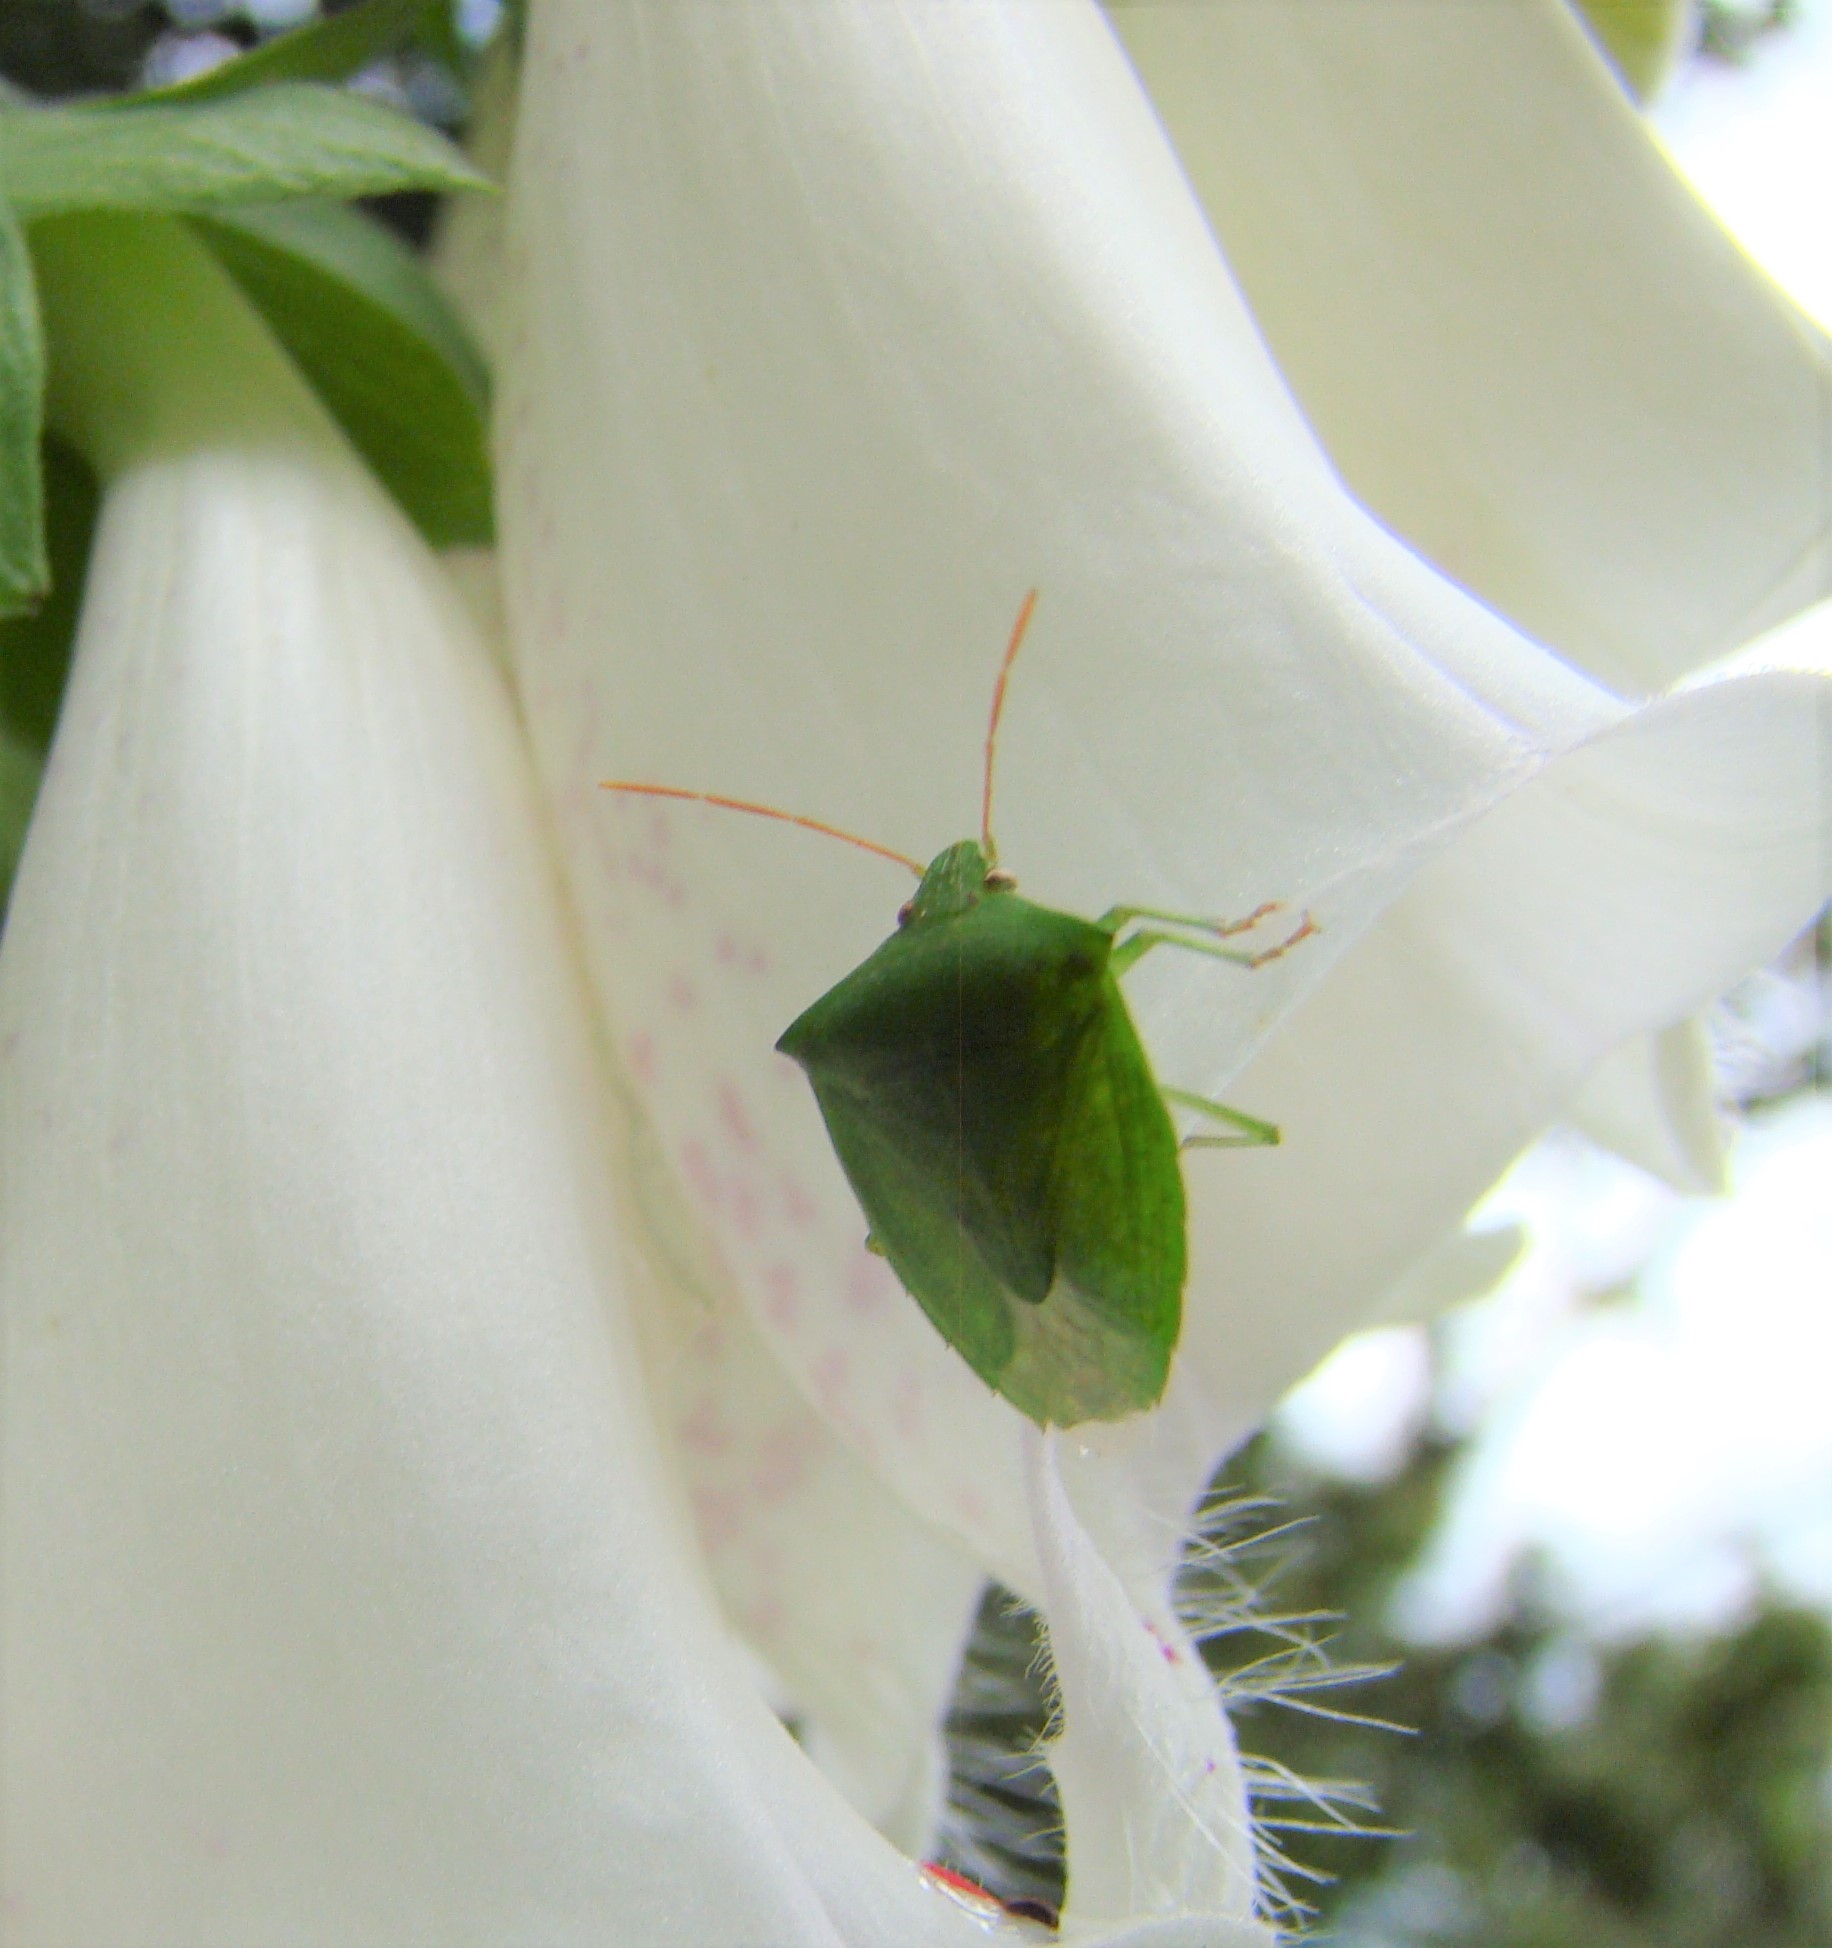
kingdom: Animalia
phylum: Arthropoda
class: Insecta
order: Hemiptera
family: Pentatomidae
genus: Cuspicona
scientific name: Cuspicona simplex
